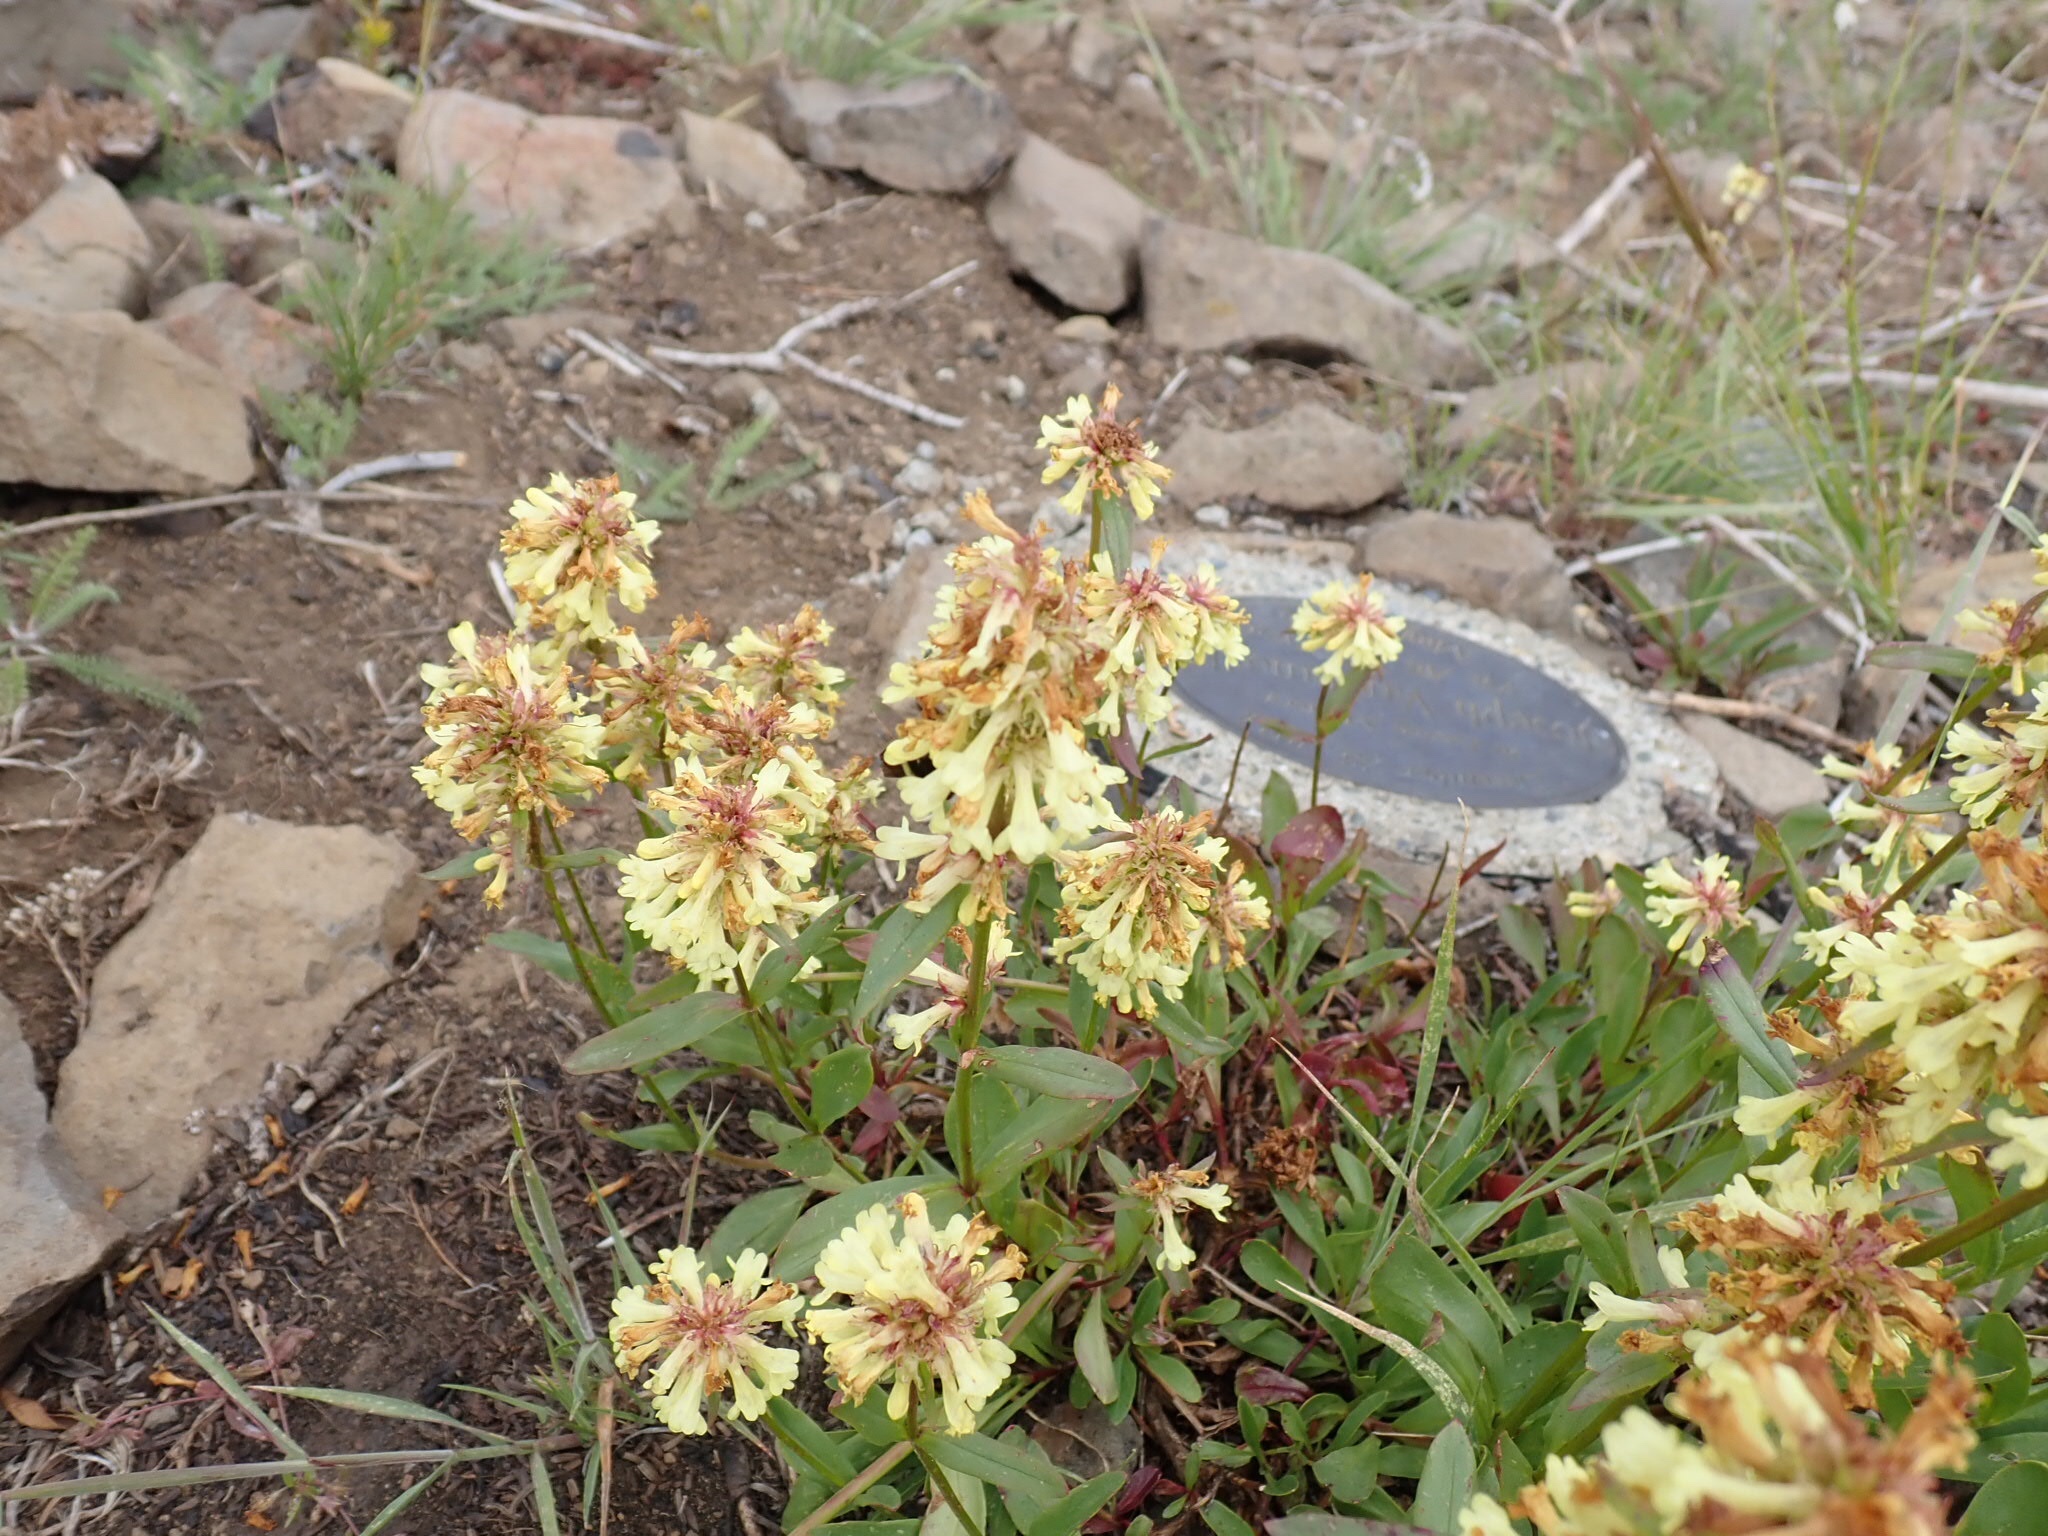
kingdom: Plantae
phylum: Tracheophyta
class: Magnoliopsida
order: Lamiales
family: Plantaginaceae
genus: Penstemon
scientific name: Penstemon confertus
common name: Lesser yellow beardtongue
